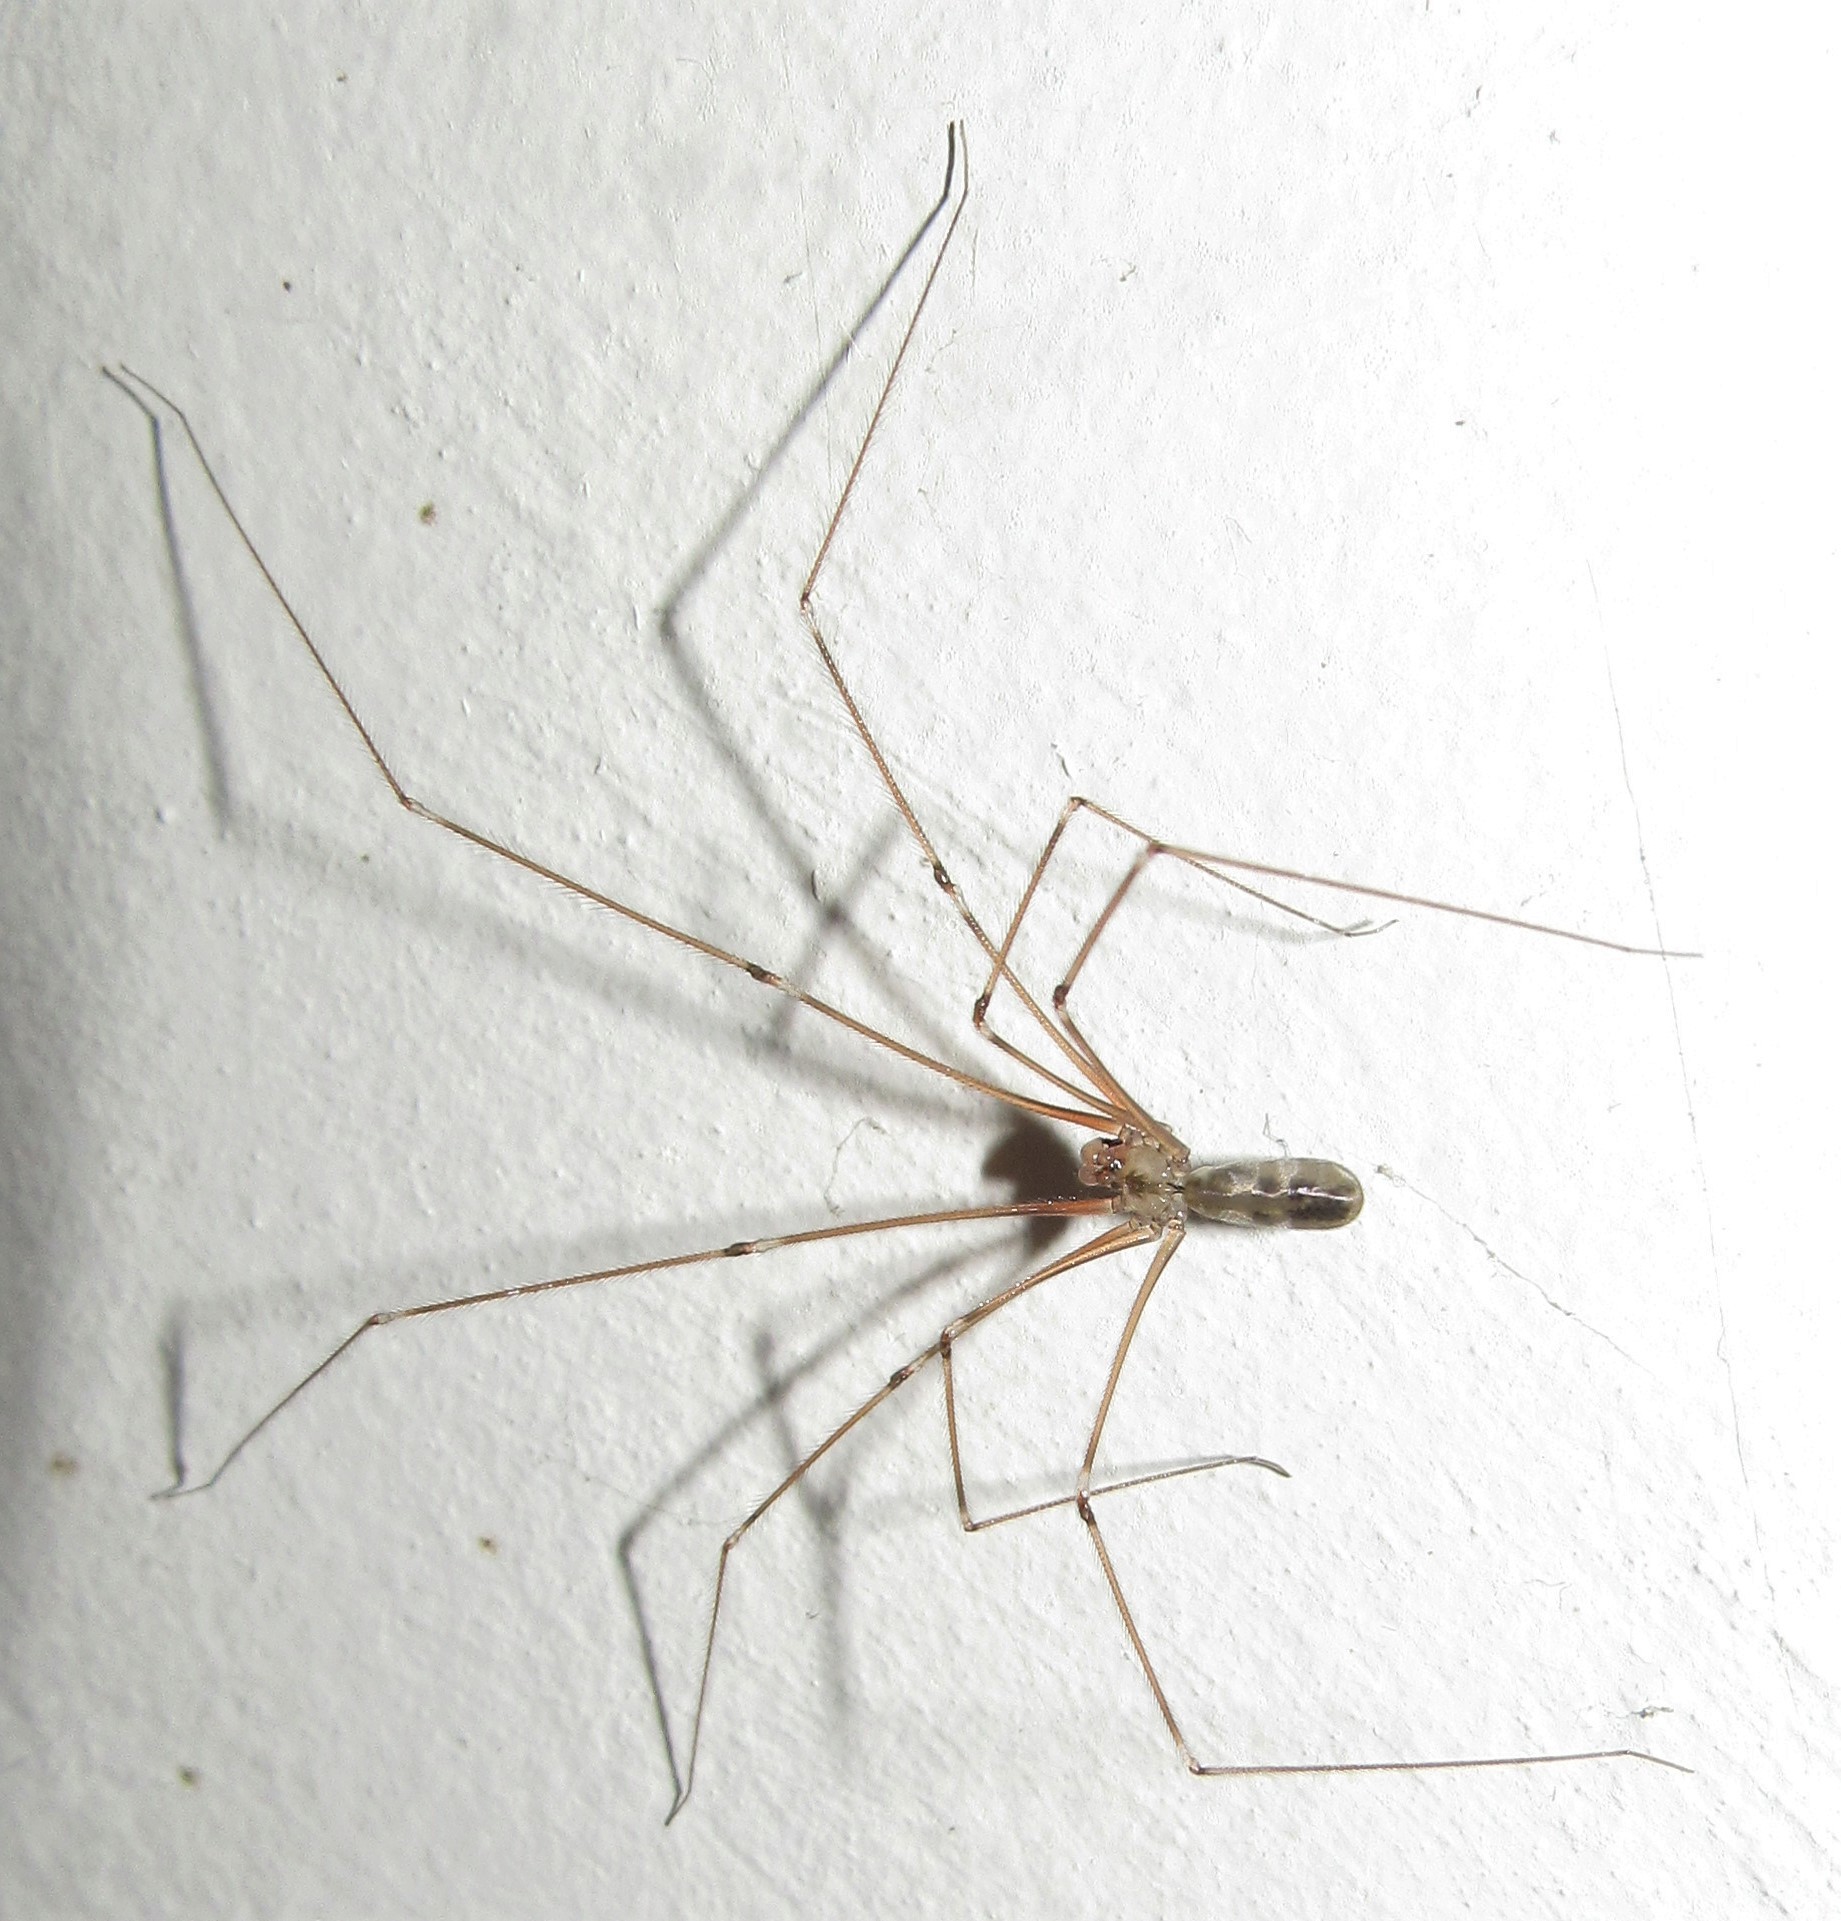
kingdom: Animalia
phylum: Arthropoda
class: Arachnida
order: Araneae
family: Pholcidae
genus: Pholcus
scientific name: Pholcus phalangioides
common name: Longbodied cellar spider
